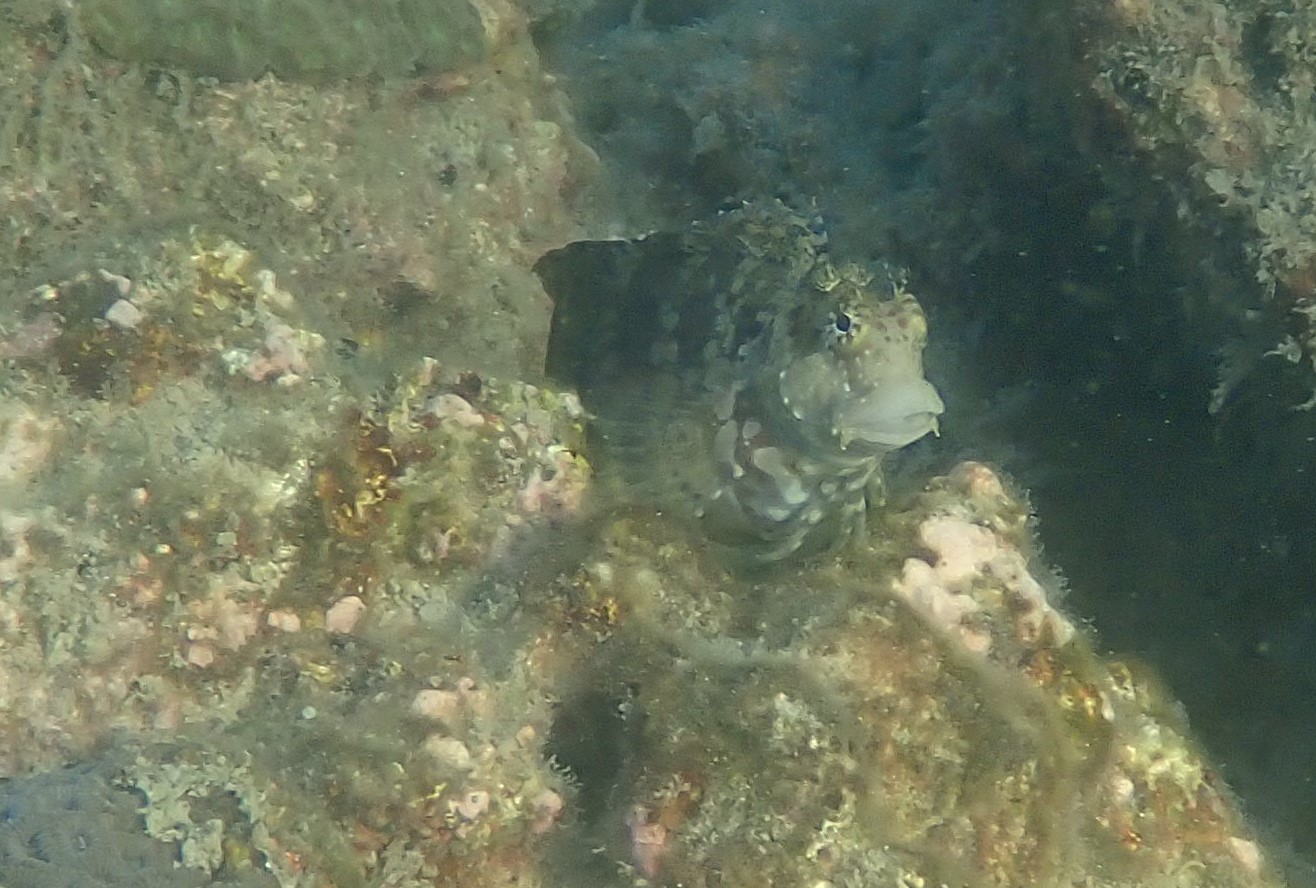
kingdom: Animalia
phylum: Chordata
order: Perciformes
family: Blenniidae
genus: Salarias
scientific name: Salarias fasciatus
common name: Jewelled blenny
